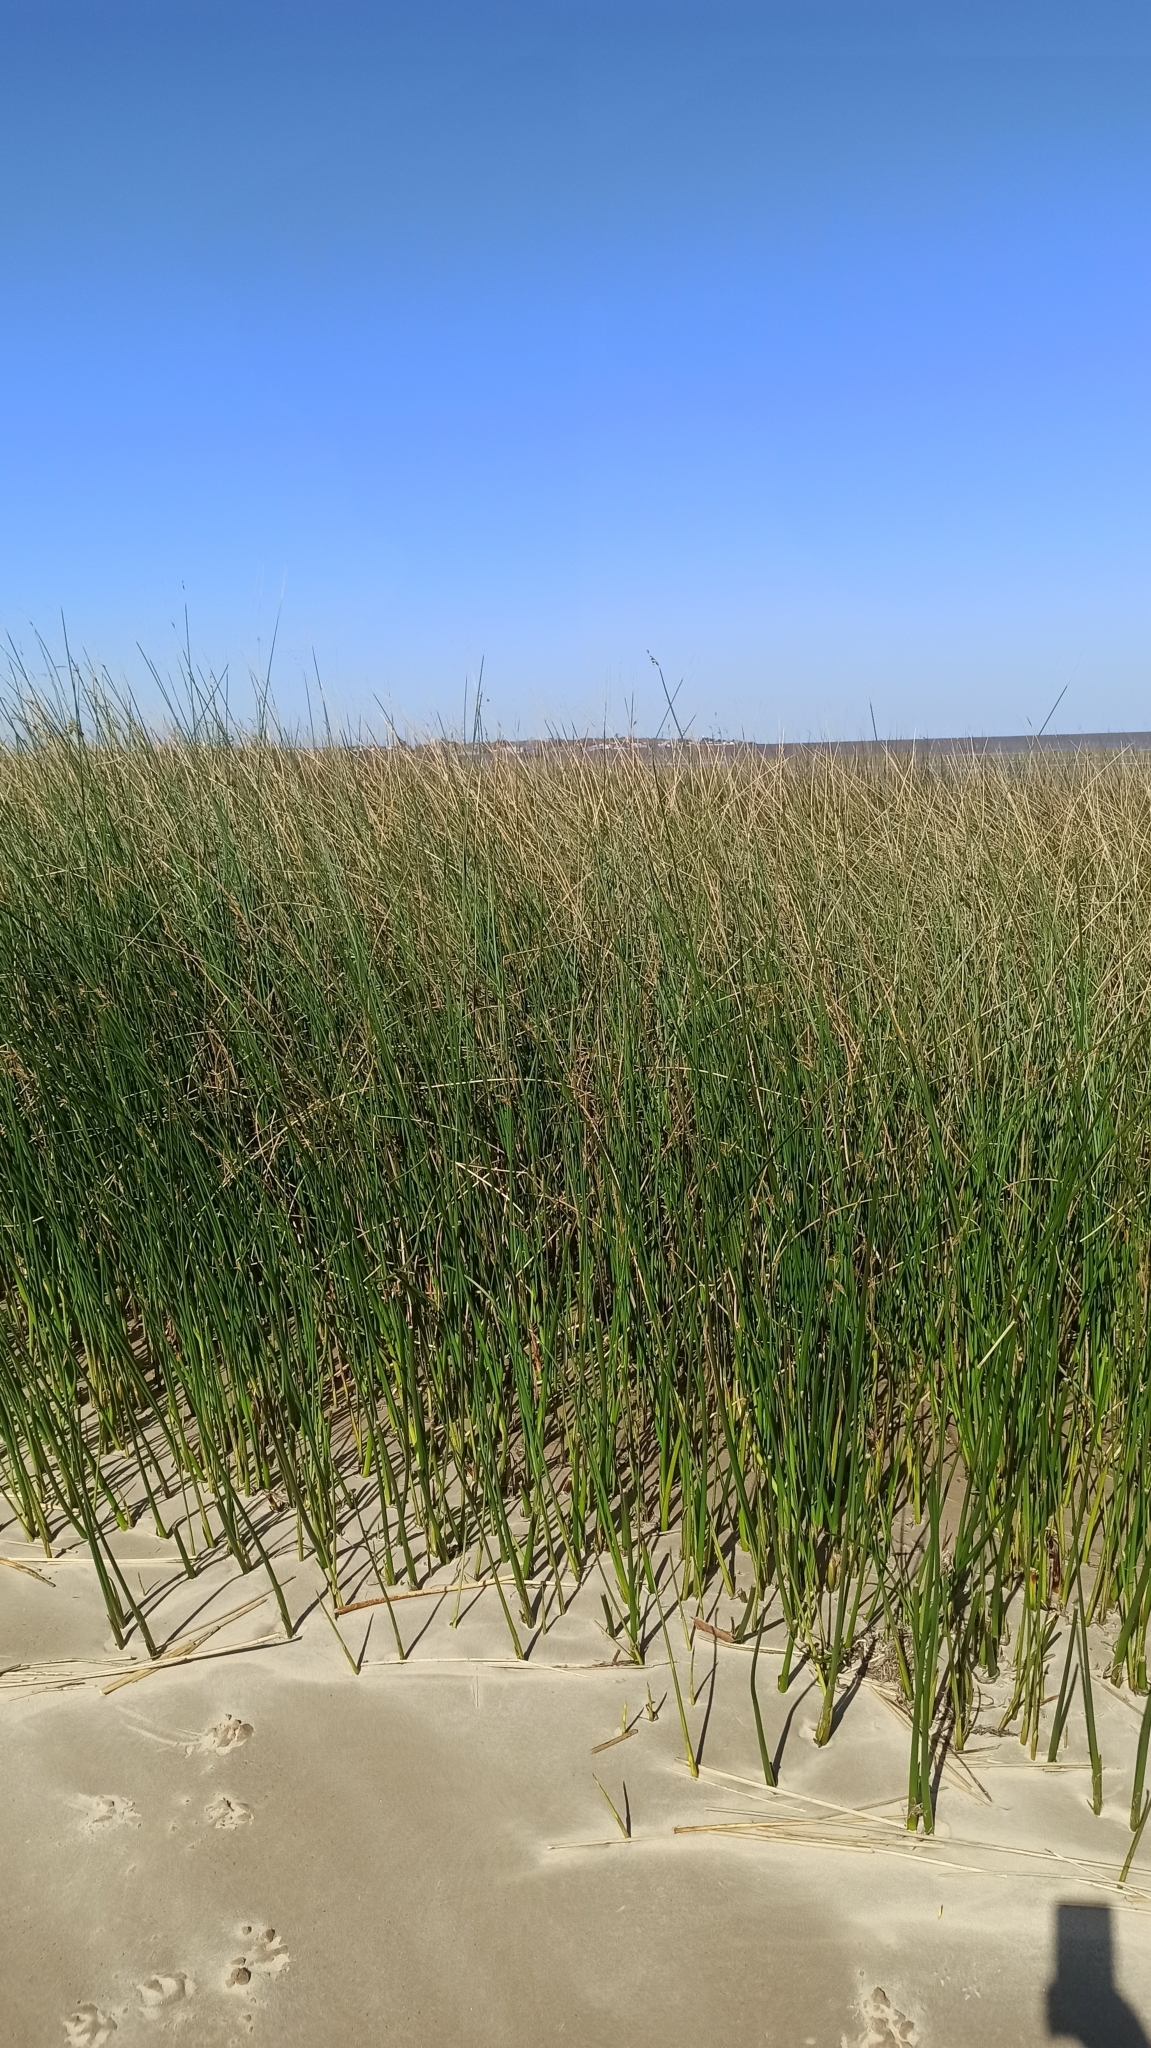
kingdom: Plantae
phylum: Tracheophyta
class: Liliopsida
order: Poales
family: Cyperaceae
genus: Schoenoplectus
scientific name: Schoenoplectus californicus
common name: California bulrush
